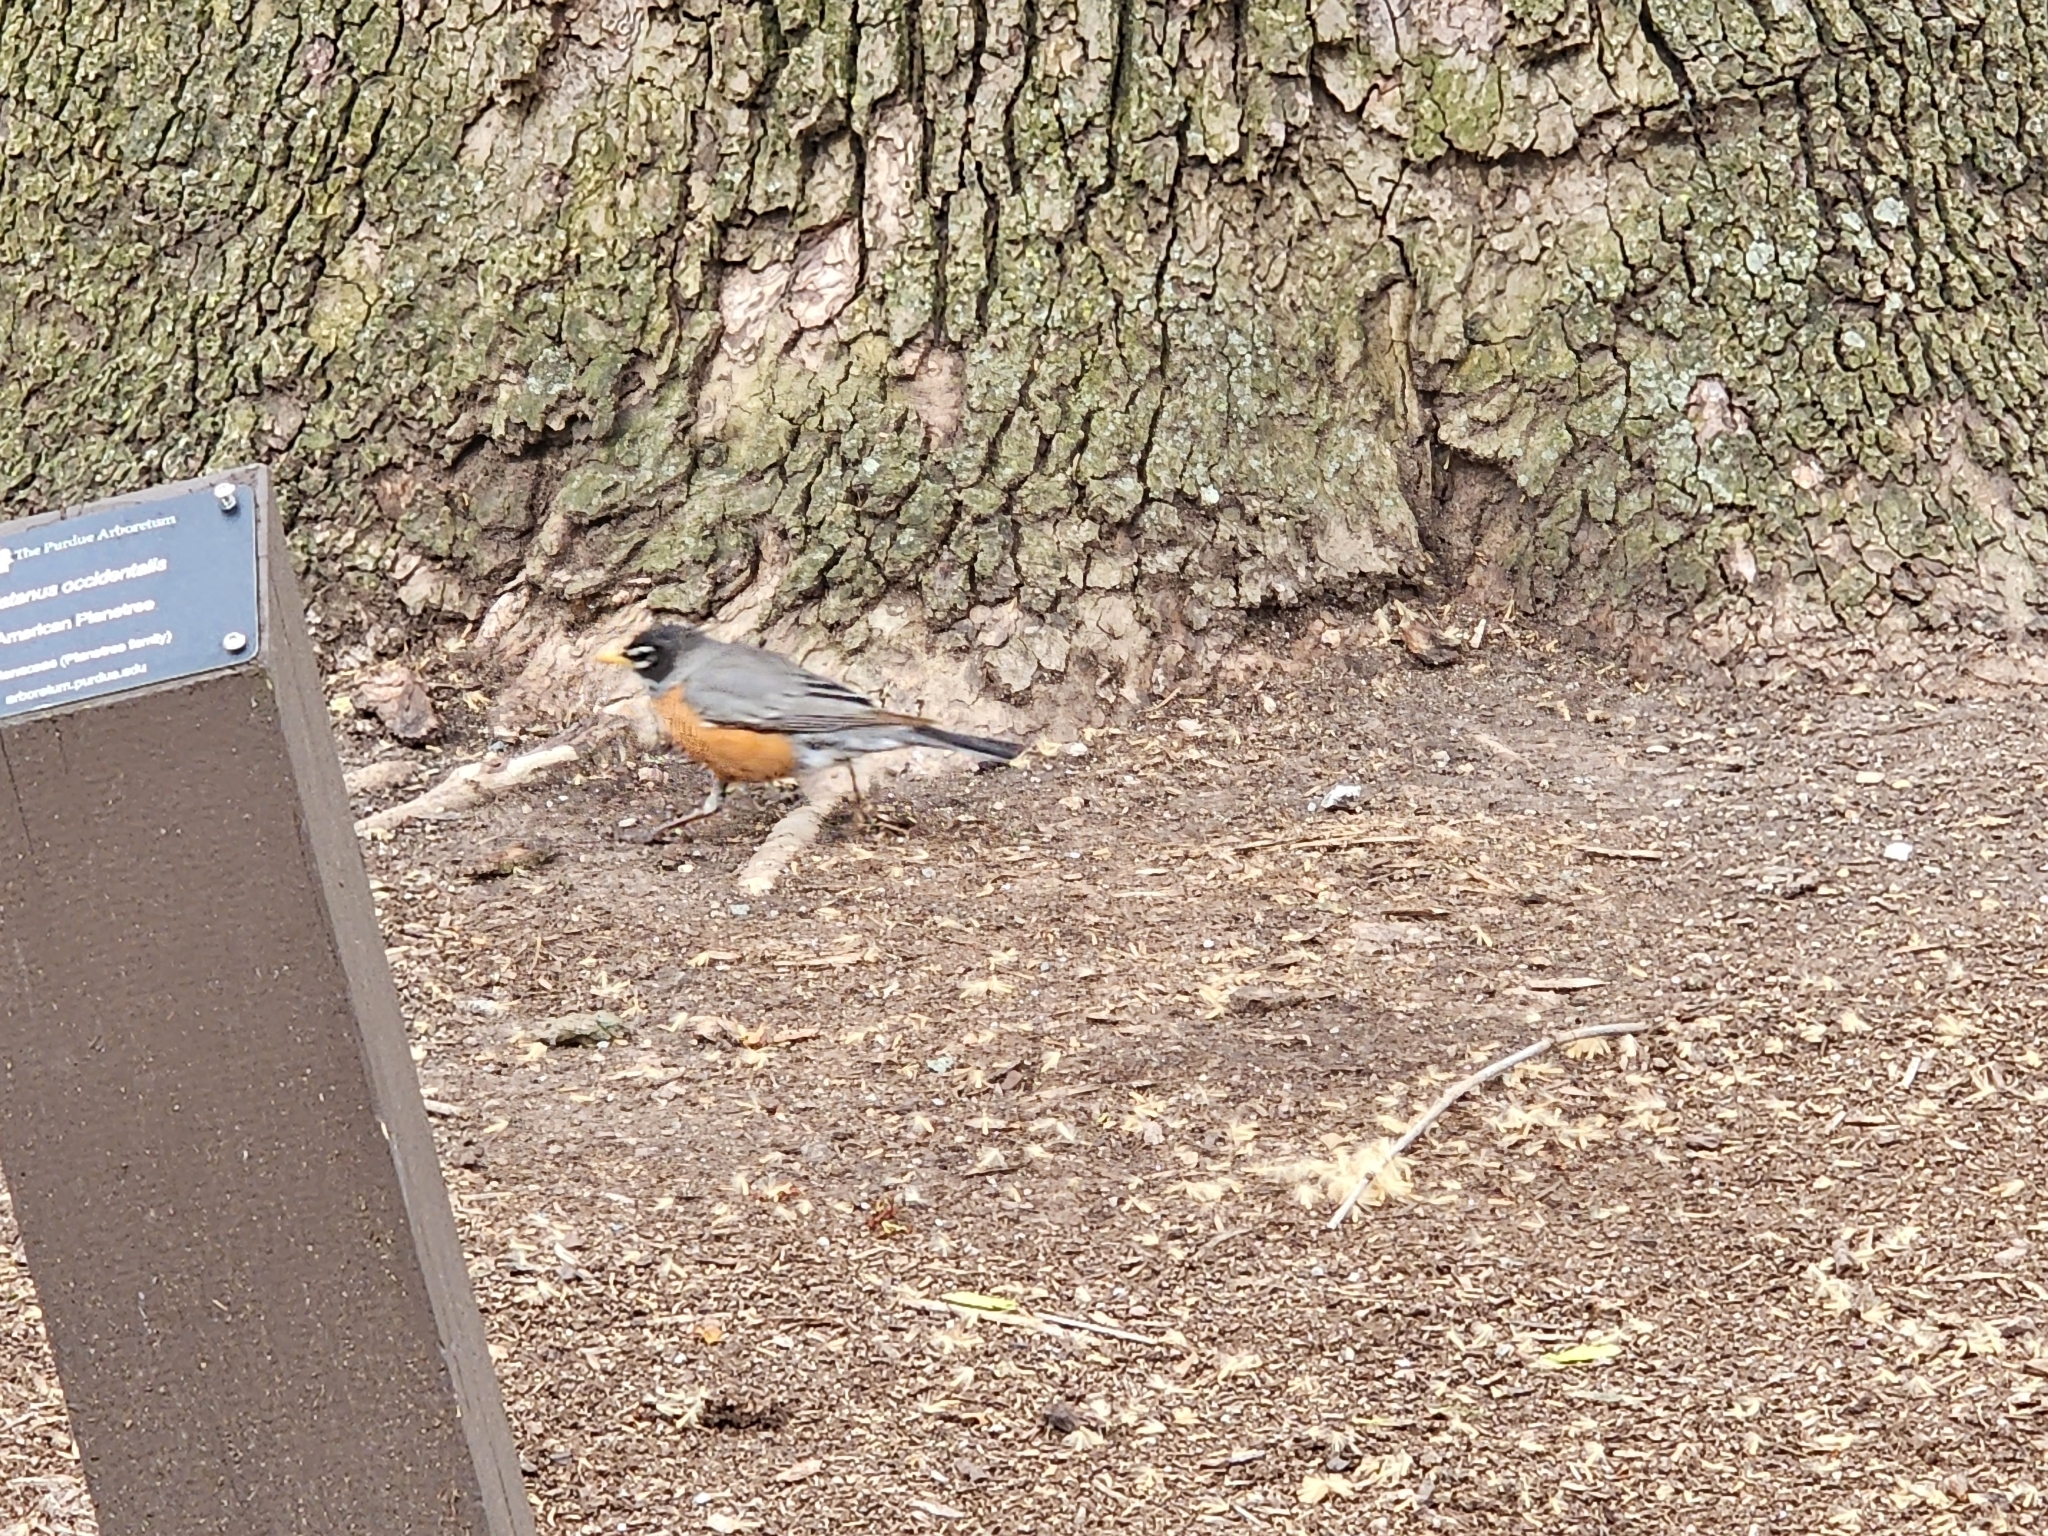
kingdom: Animalia
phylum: Chordata
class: Aves
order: Passeriformes
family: Turdidae
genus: Turdus
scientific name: Turdus migratorius
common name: American robin
